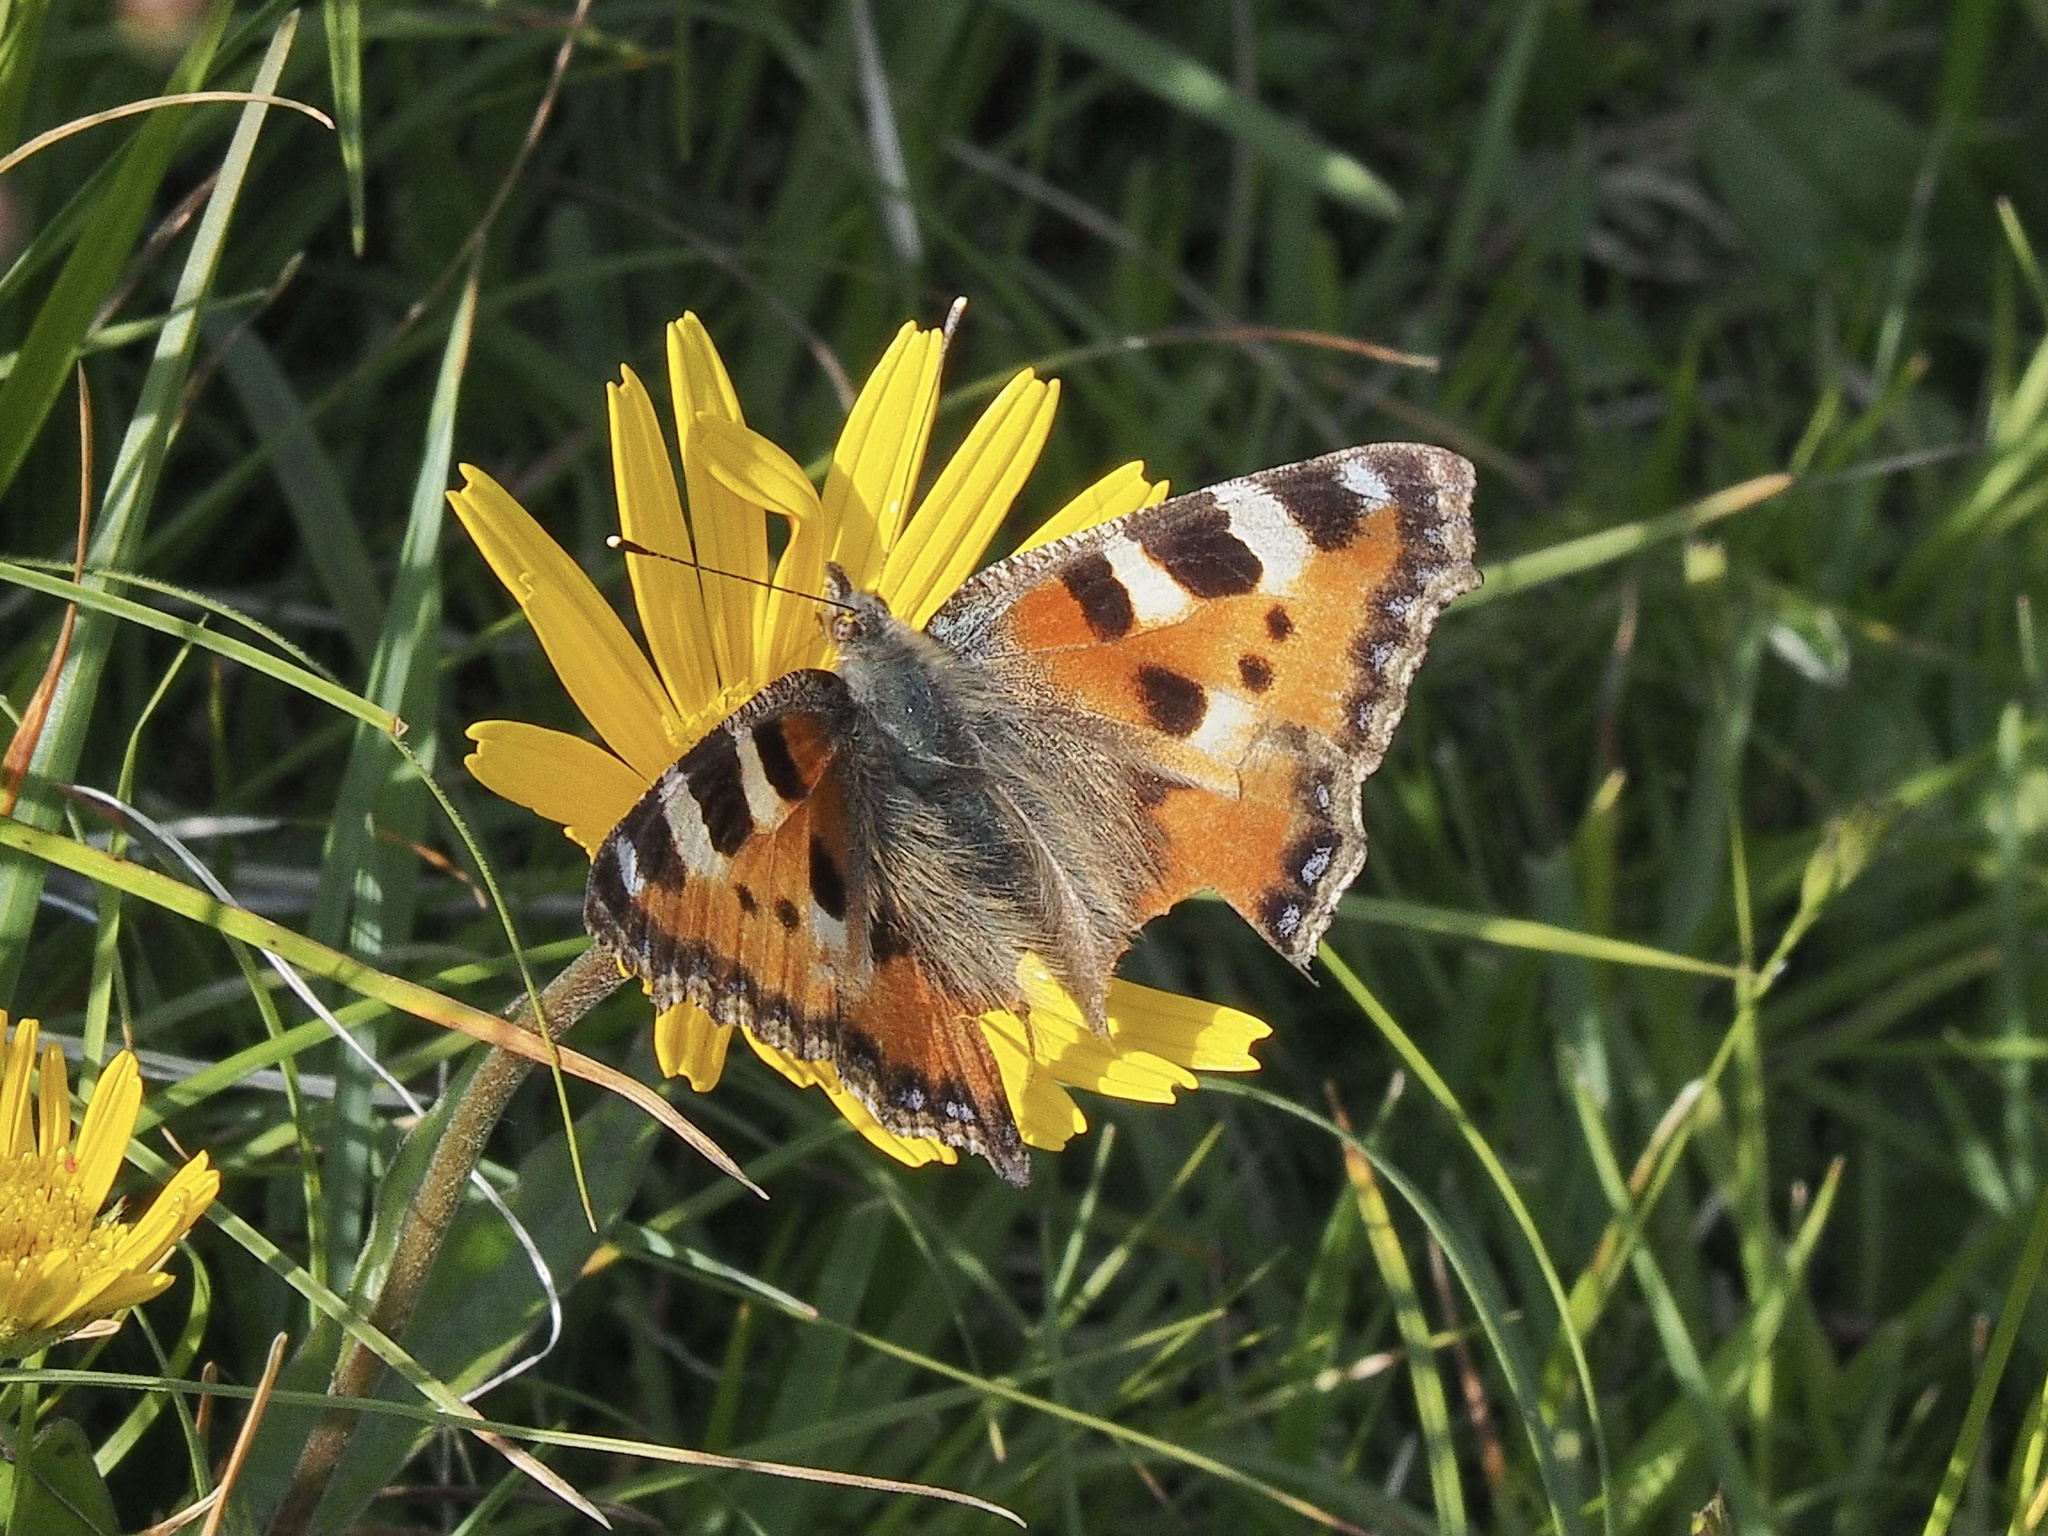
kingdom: Animalia
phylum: Arthropoda
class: Insecta
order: Lepidoptera
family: Nymphalidae
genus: Aglais
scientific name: Aglais urticae
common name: Small tortoiseshell
